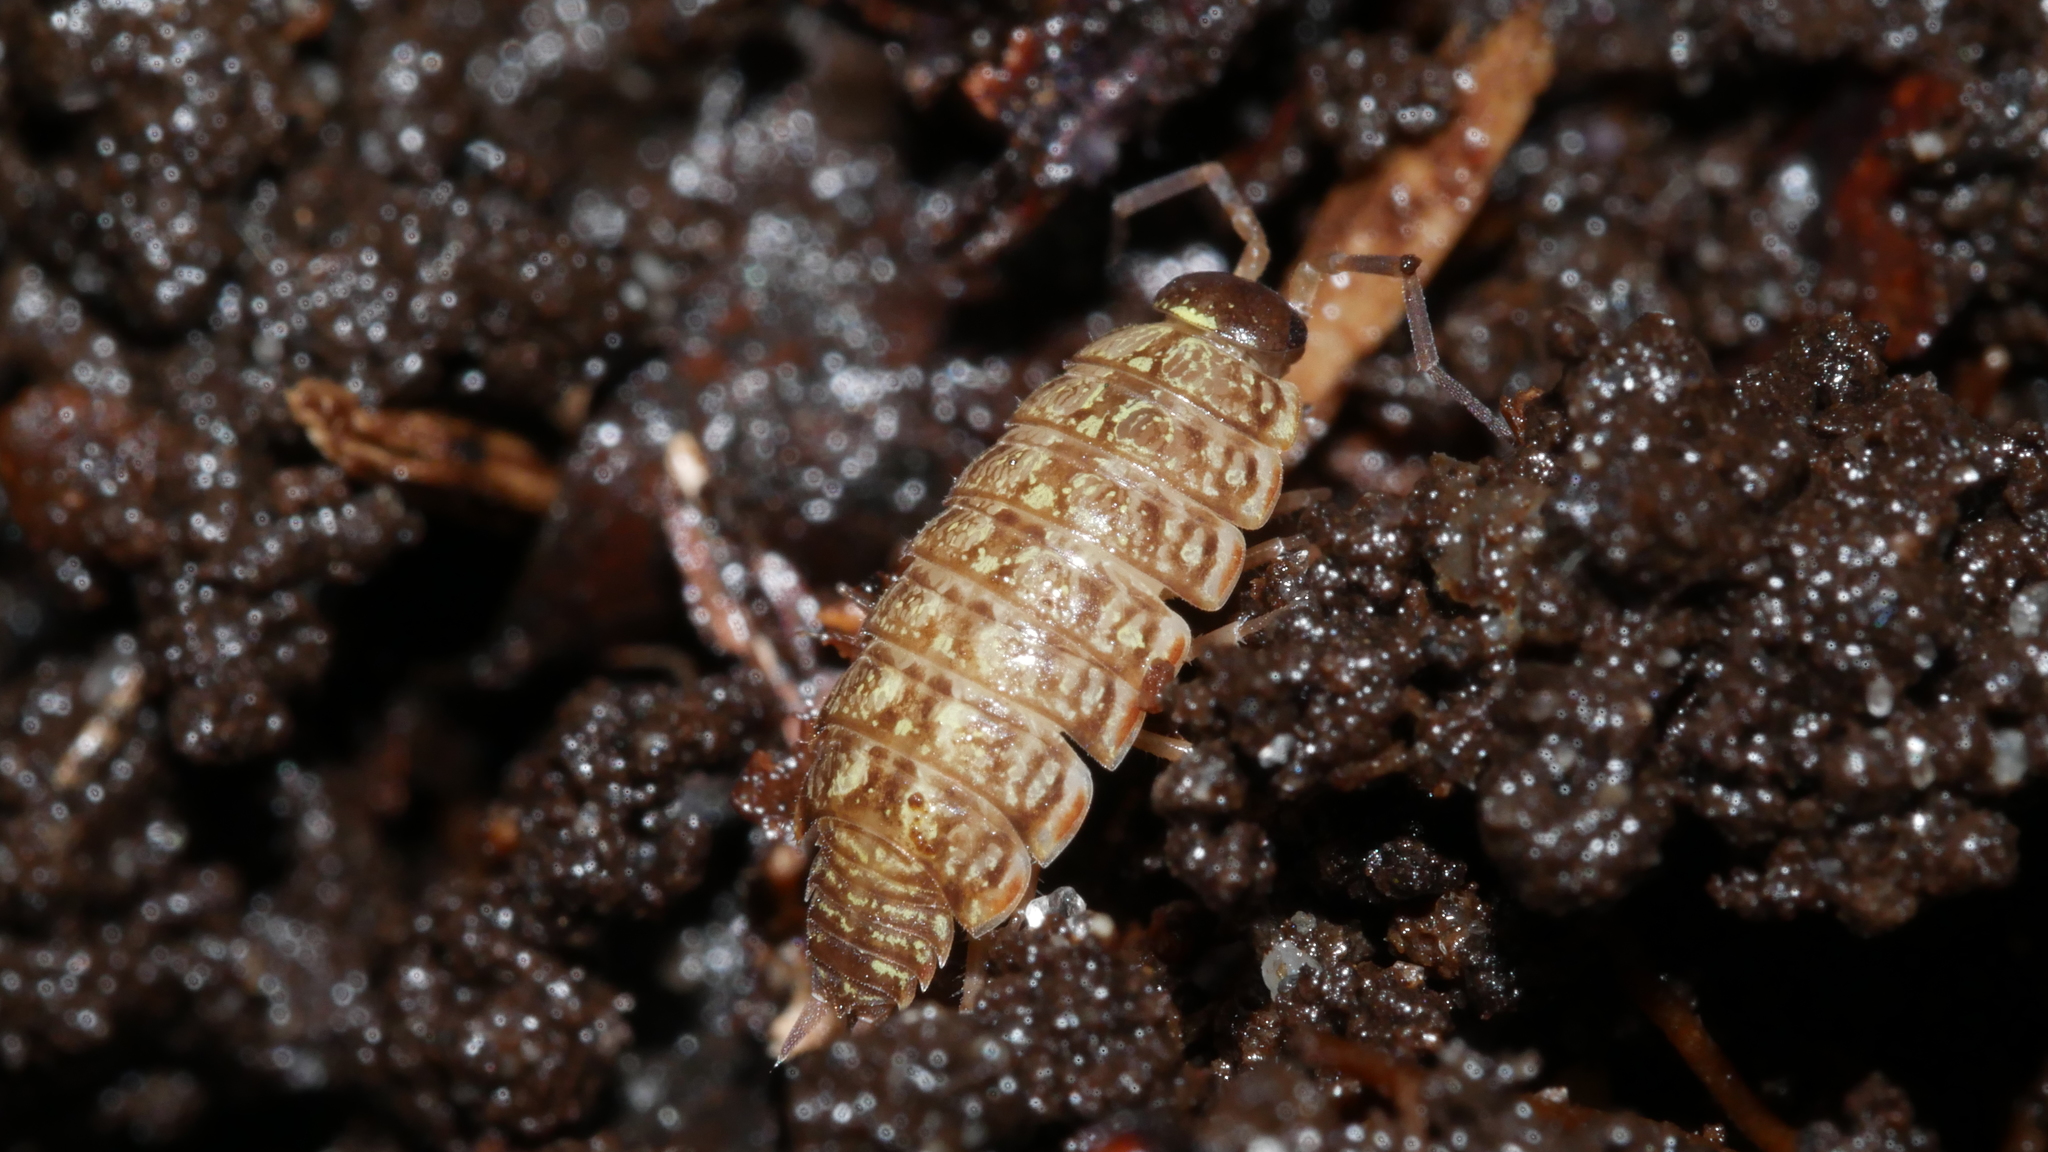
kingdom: Animalia
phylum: Arthropoda
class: Malacostraca
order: Isopoda
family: Philosciidae
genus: Philoscia
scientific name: Philoscia muscorum
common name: Common striped woodlouse
